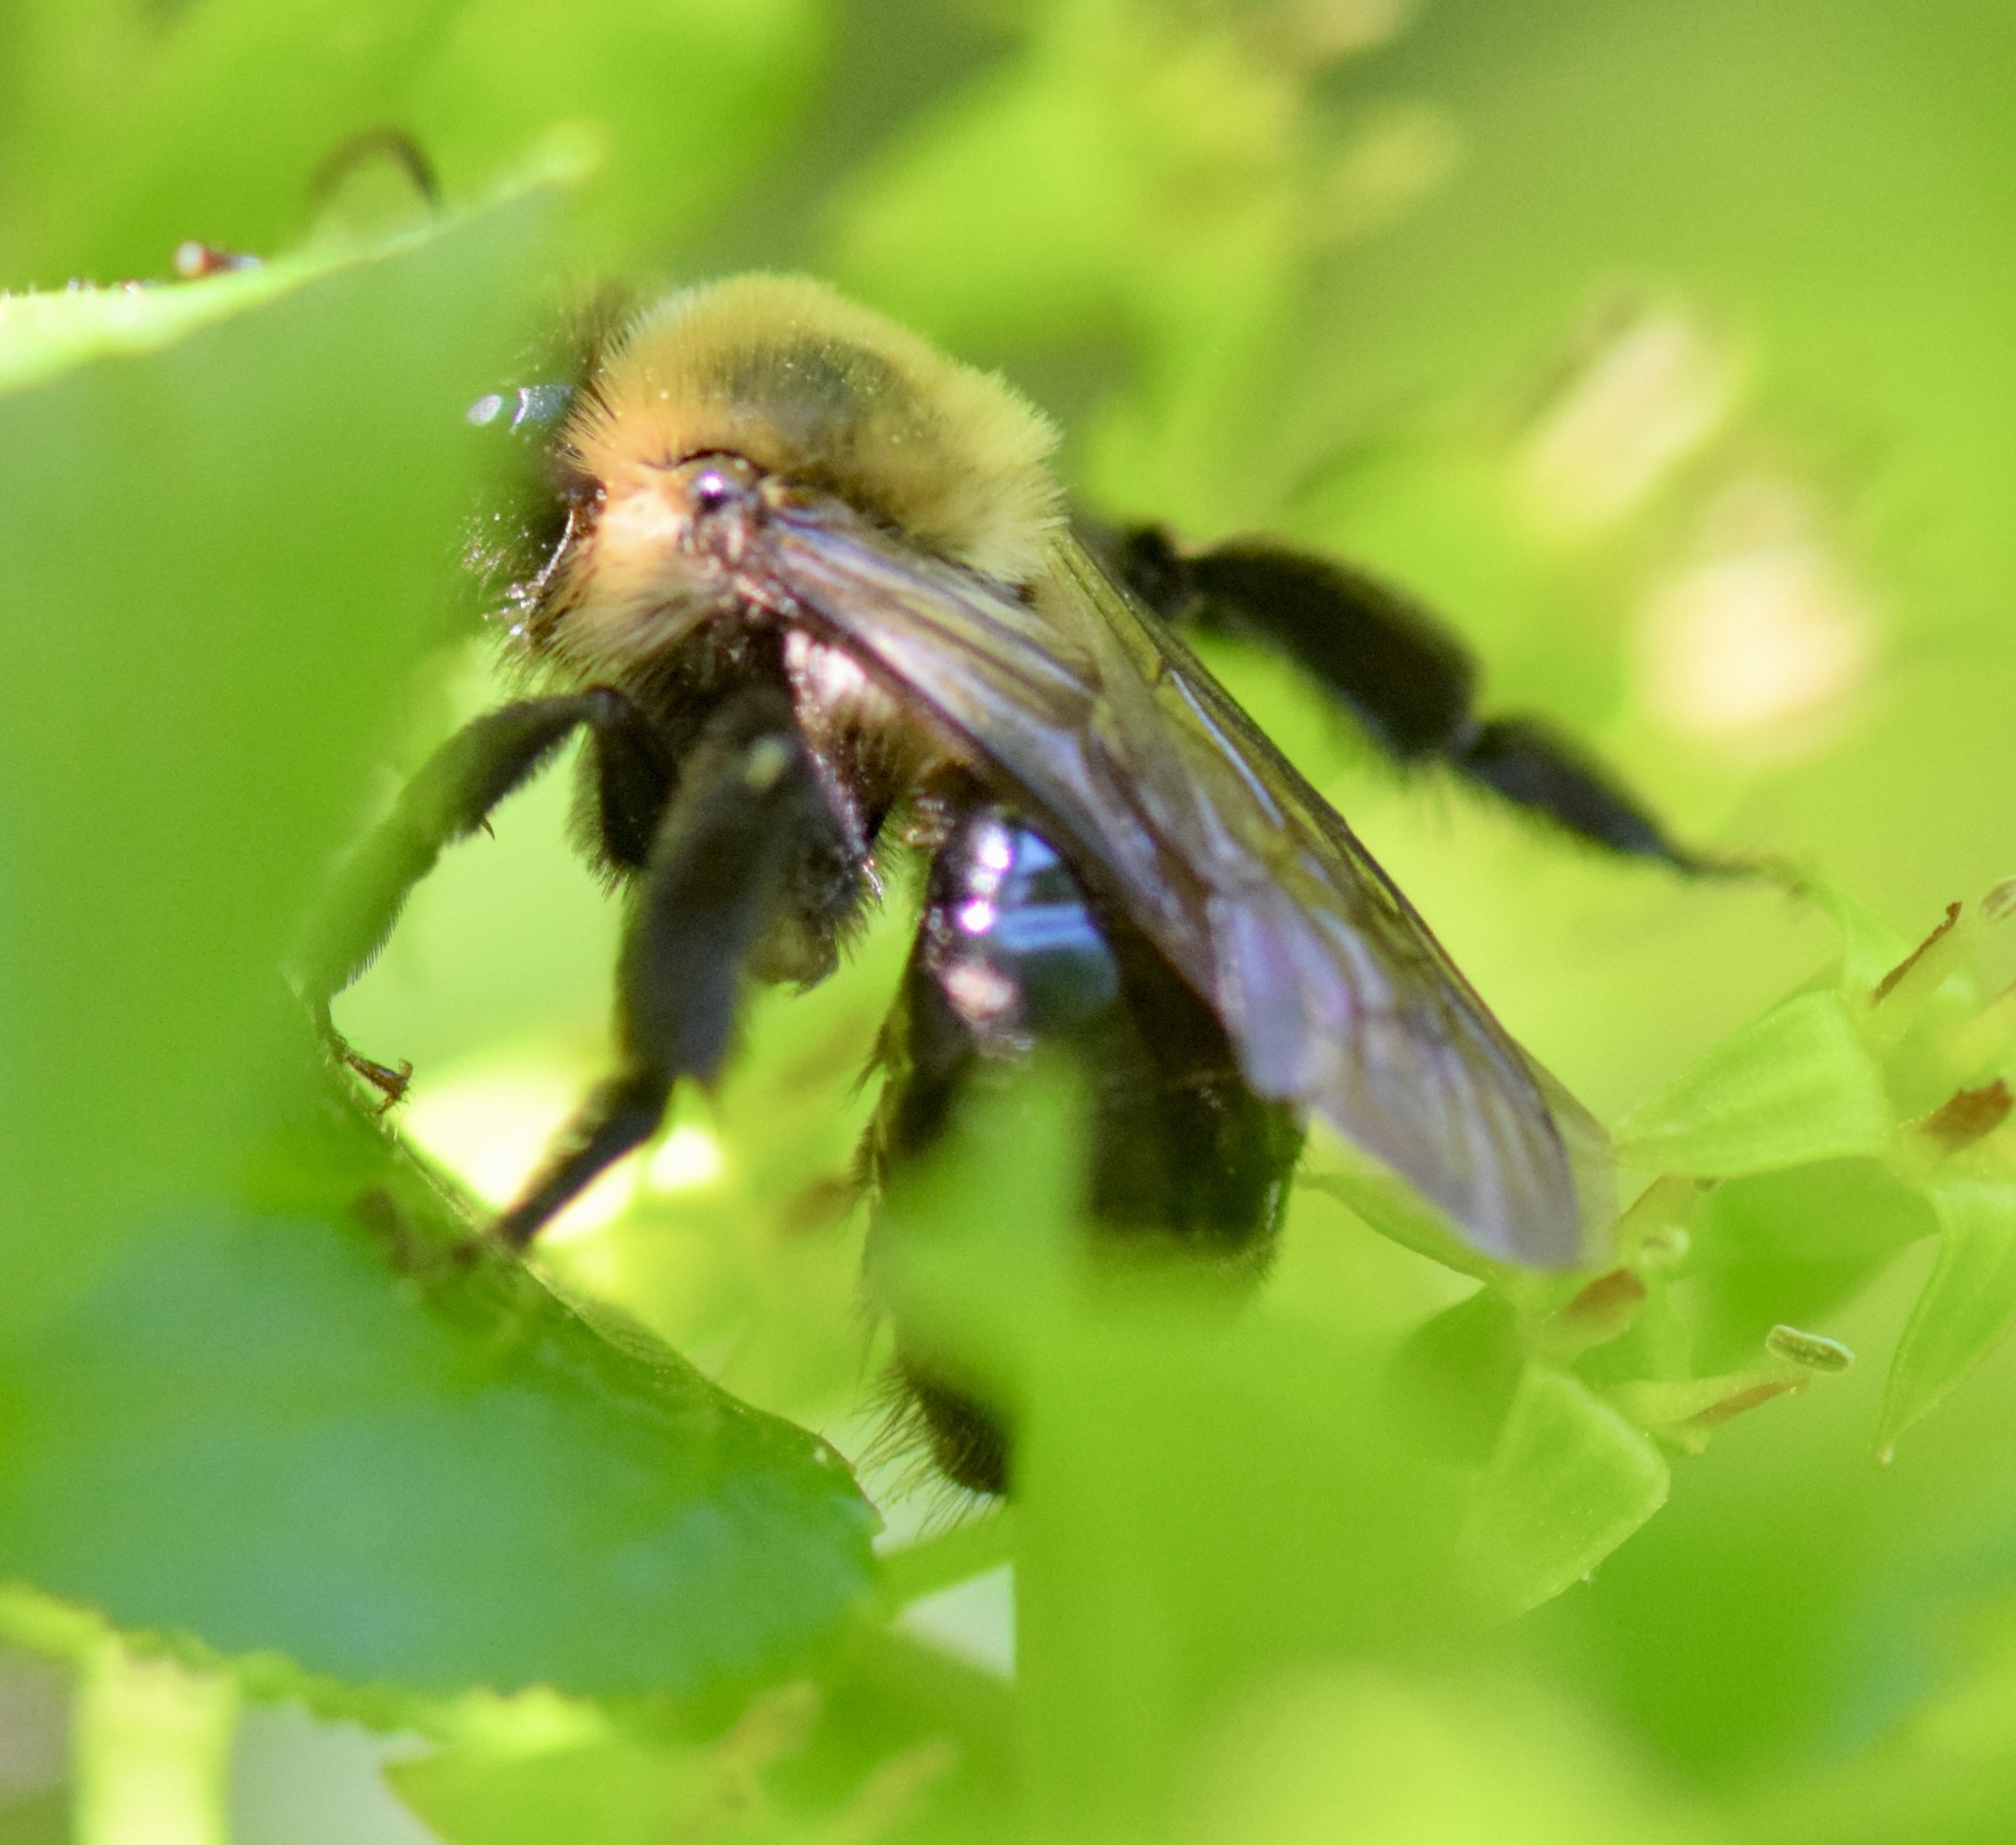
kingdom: Animalia
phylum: Arthropoda
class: Insecta
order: Hymenoptera
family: Andrenidae
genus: Andrena
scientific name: Andrena vicina
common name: Neighborly mining bee
